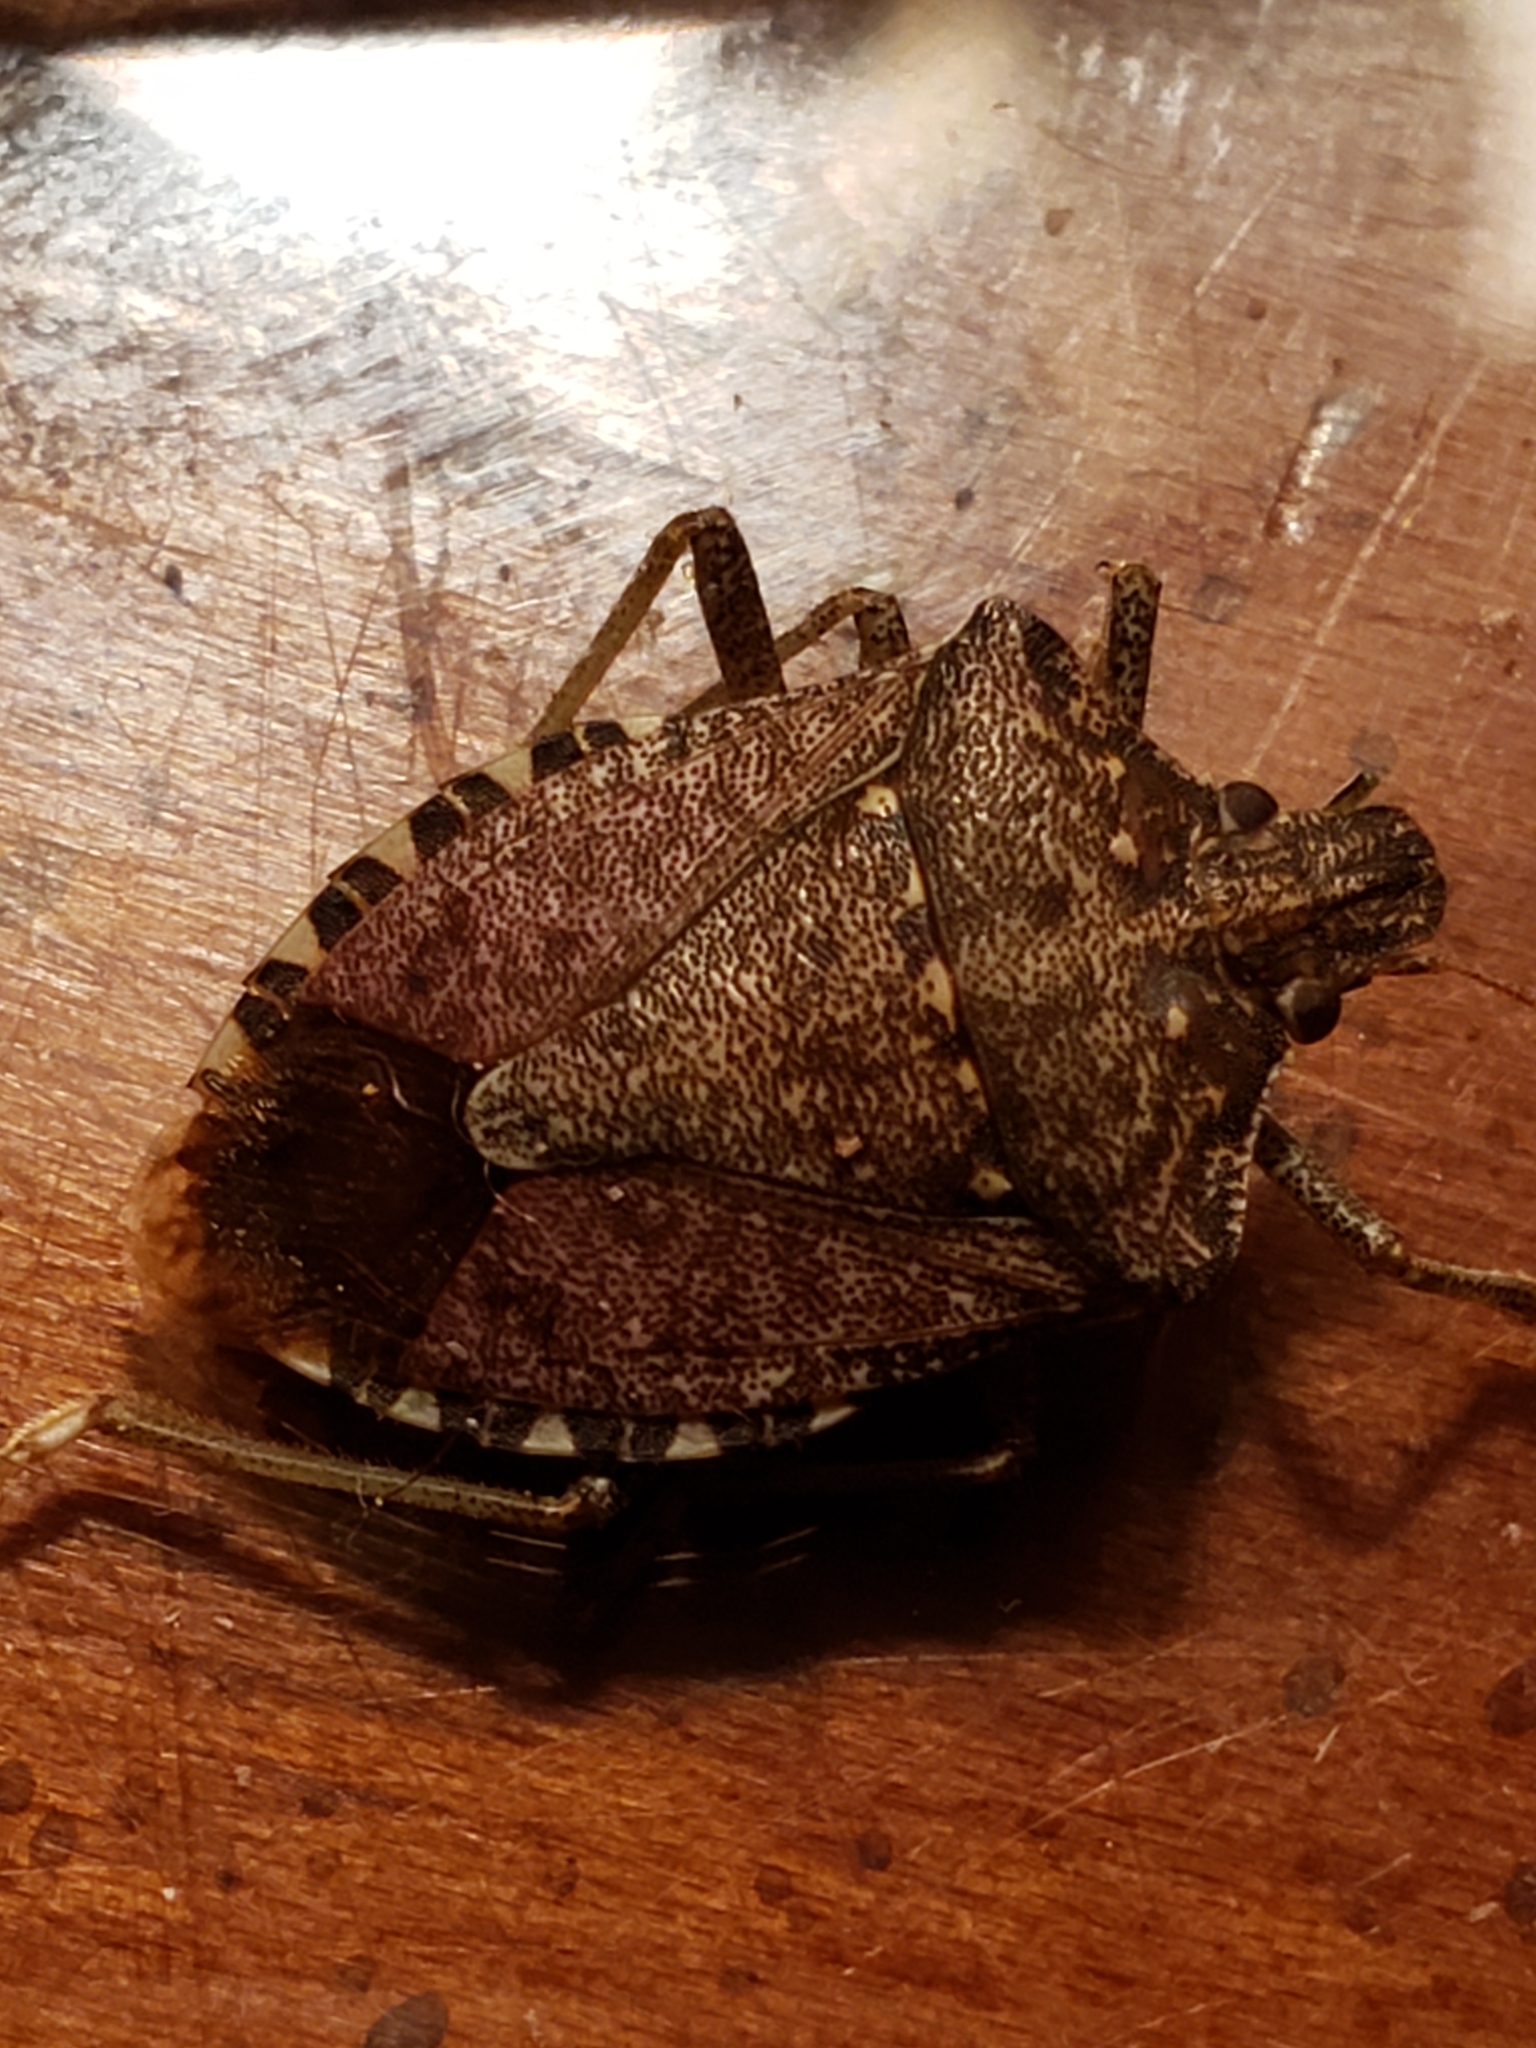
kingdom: Animalia
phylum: Arthropoda
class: Insecta
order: Hemiptera
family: Pentatomidae
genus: Halyomorpha
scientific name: Halyomorpha halys
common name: Brown marmorated stink bug
